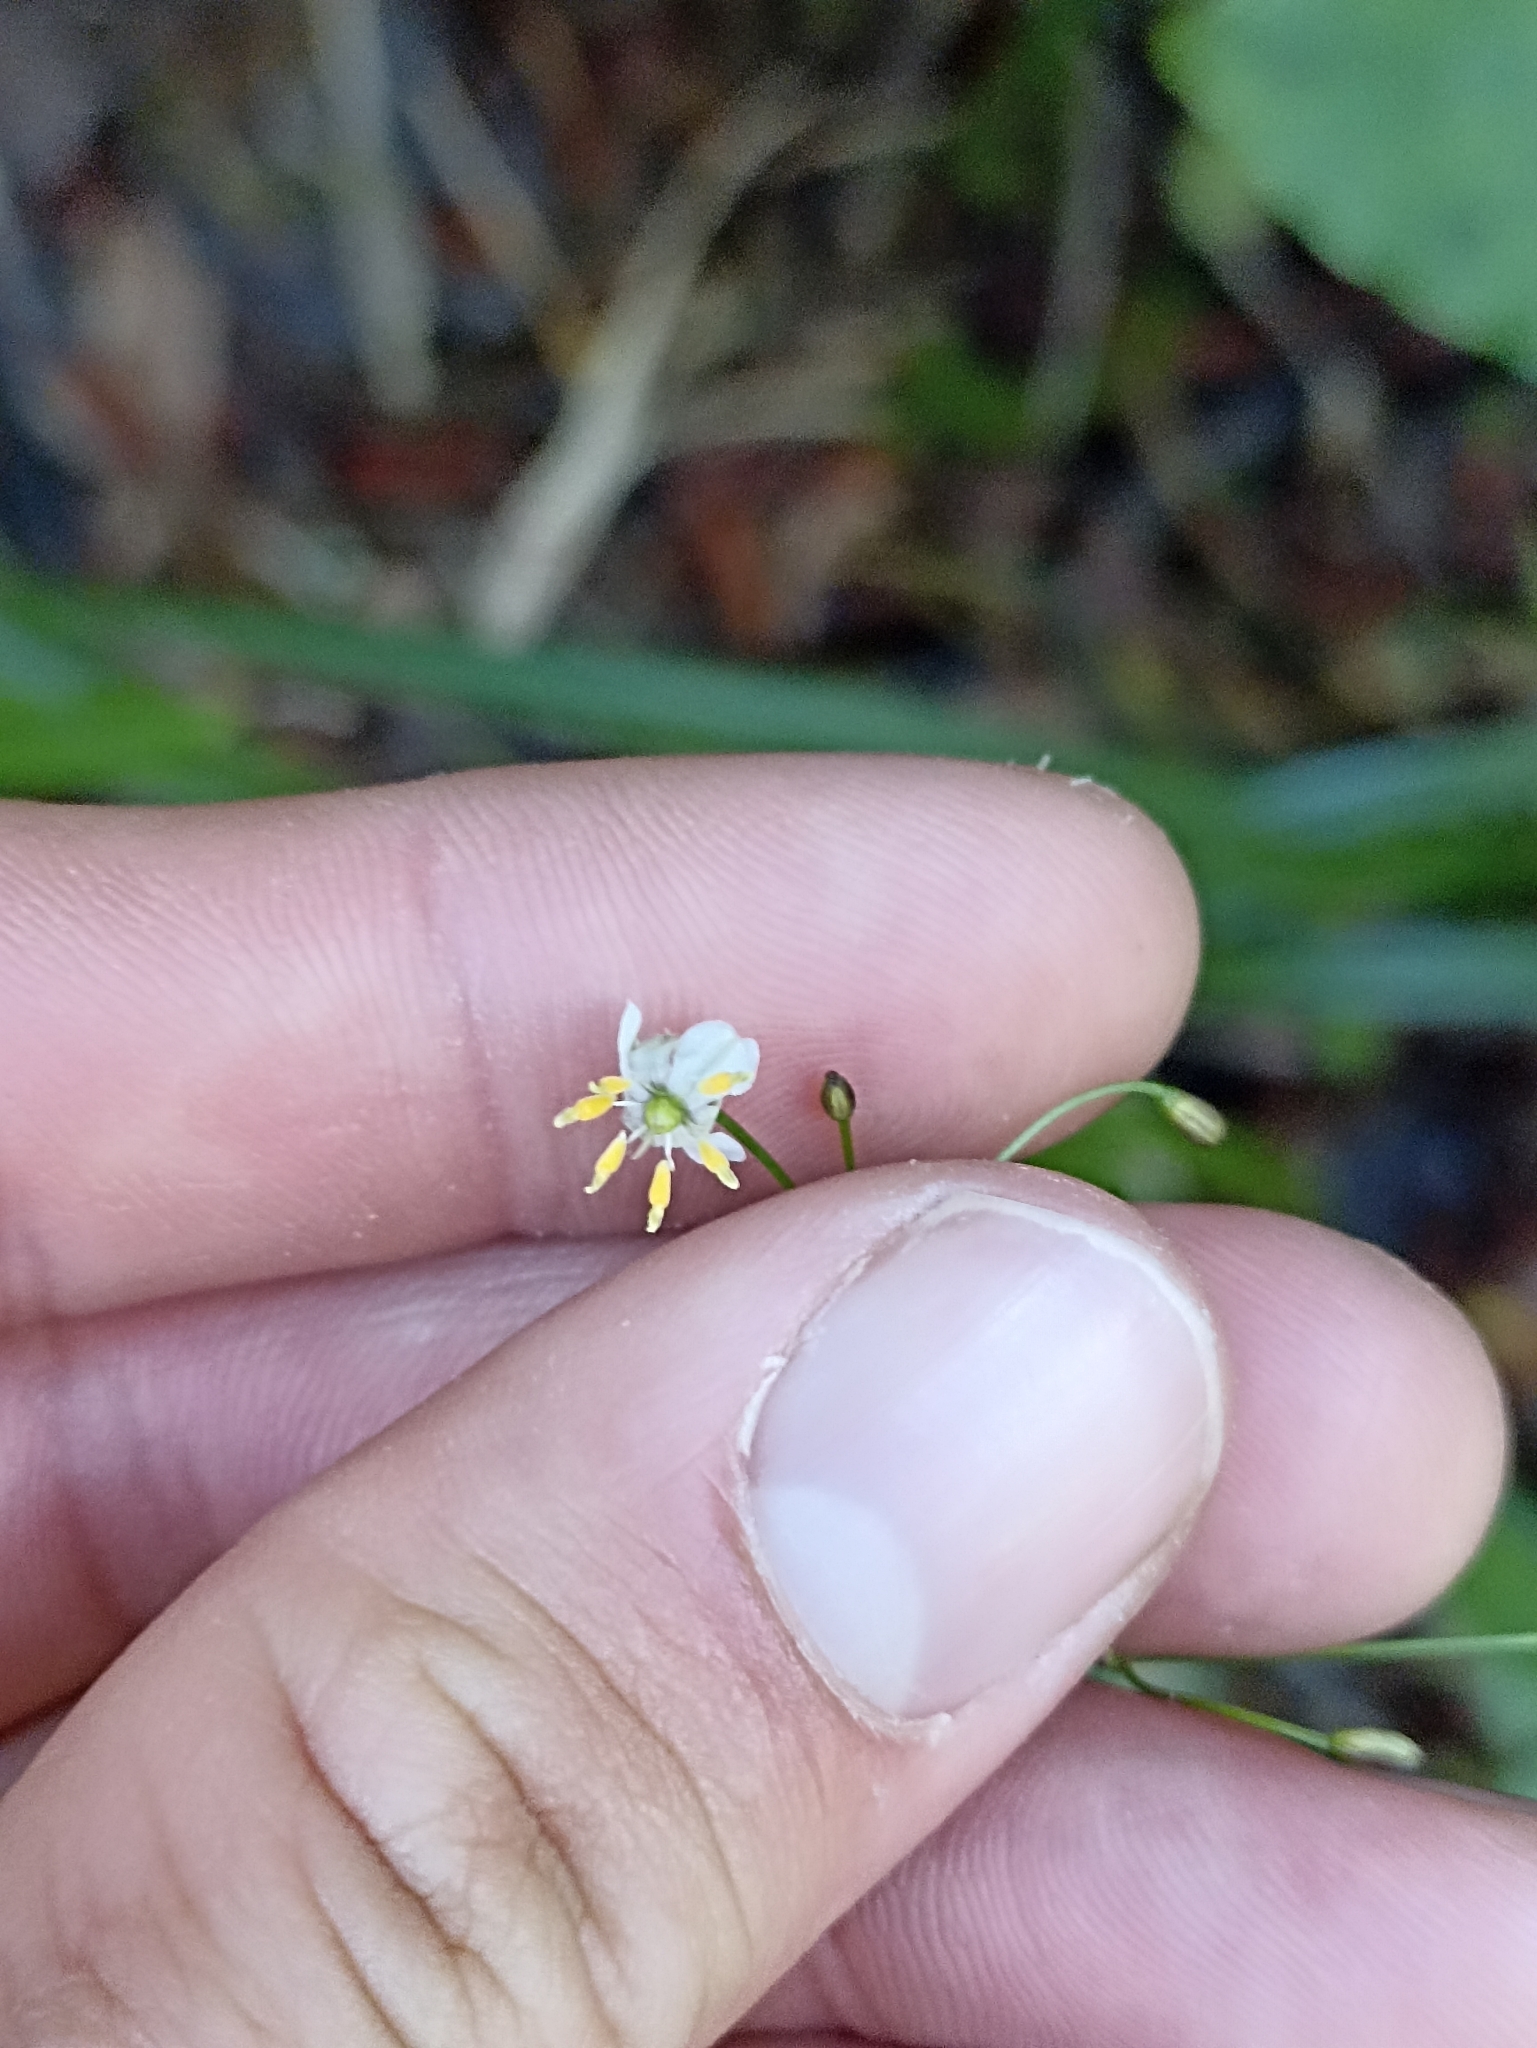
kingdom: Plantae
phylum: Tracheophyta
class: Liliopsida
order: Asparagales
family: Asphodelaceae
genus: Dianella
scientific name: Dianella nigra
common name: New zealand-blueberry
